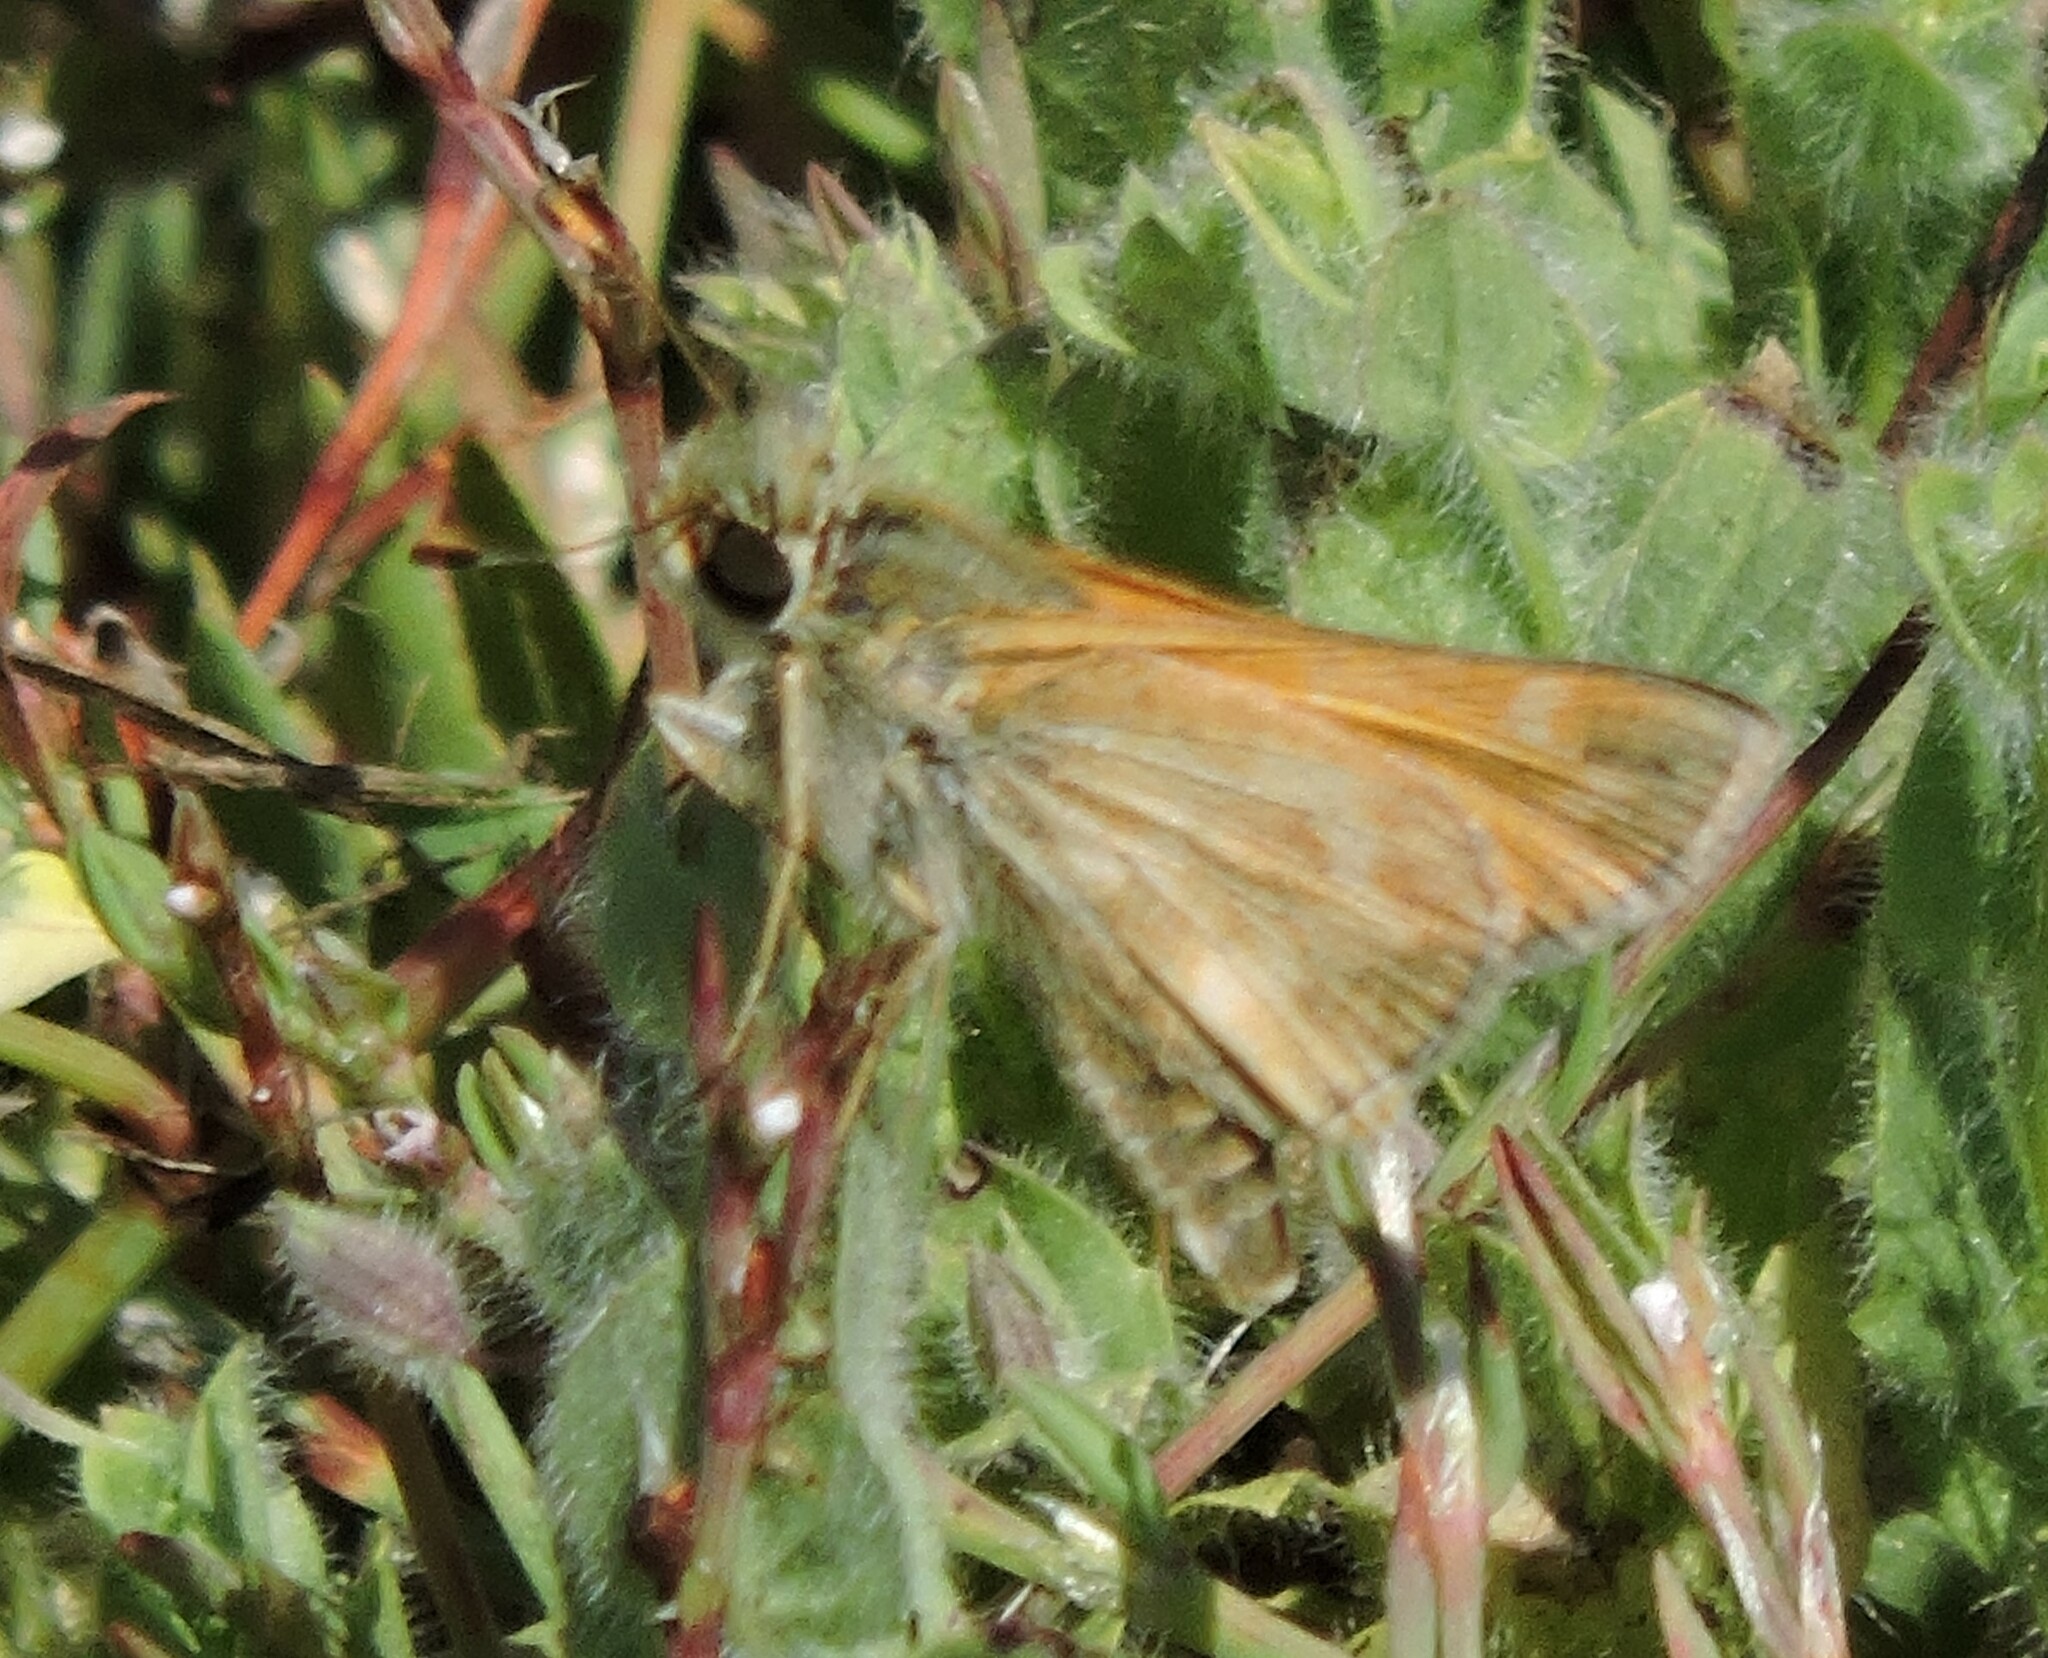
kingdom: Animalia
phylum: Arthropoda
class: Insecta
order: Lepidoptera
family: Hesperiidae
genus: Atalopedes
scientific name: Atalopedes campestris
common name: Sachem
